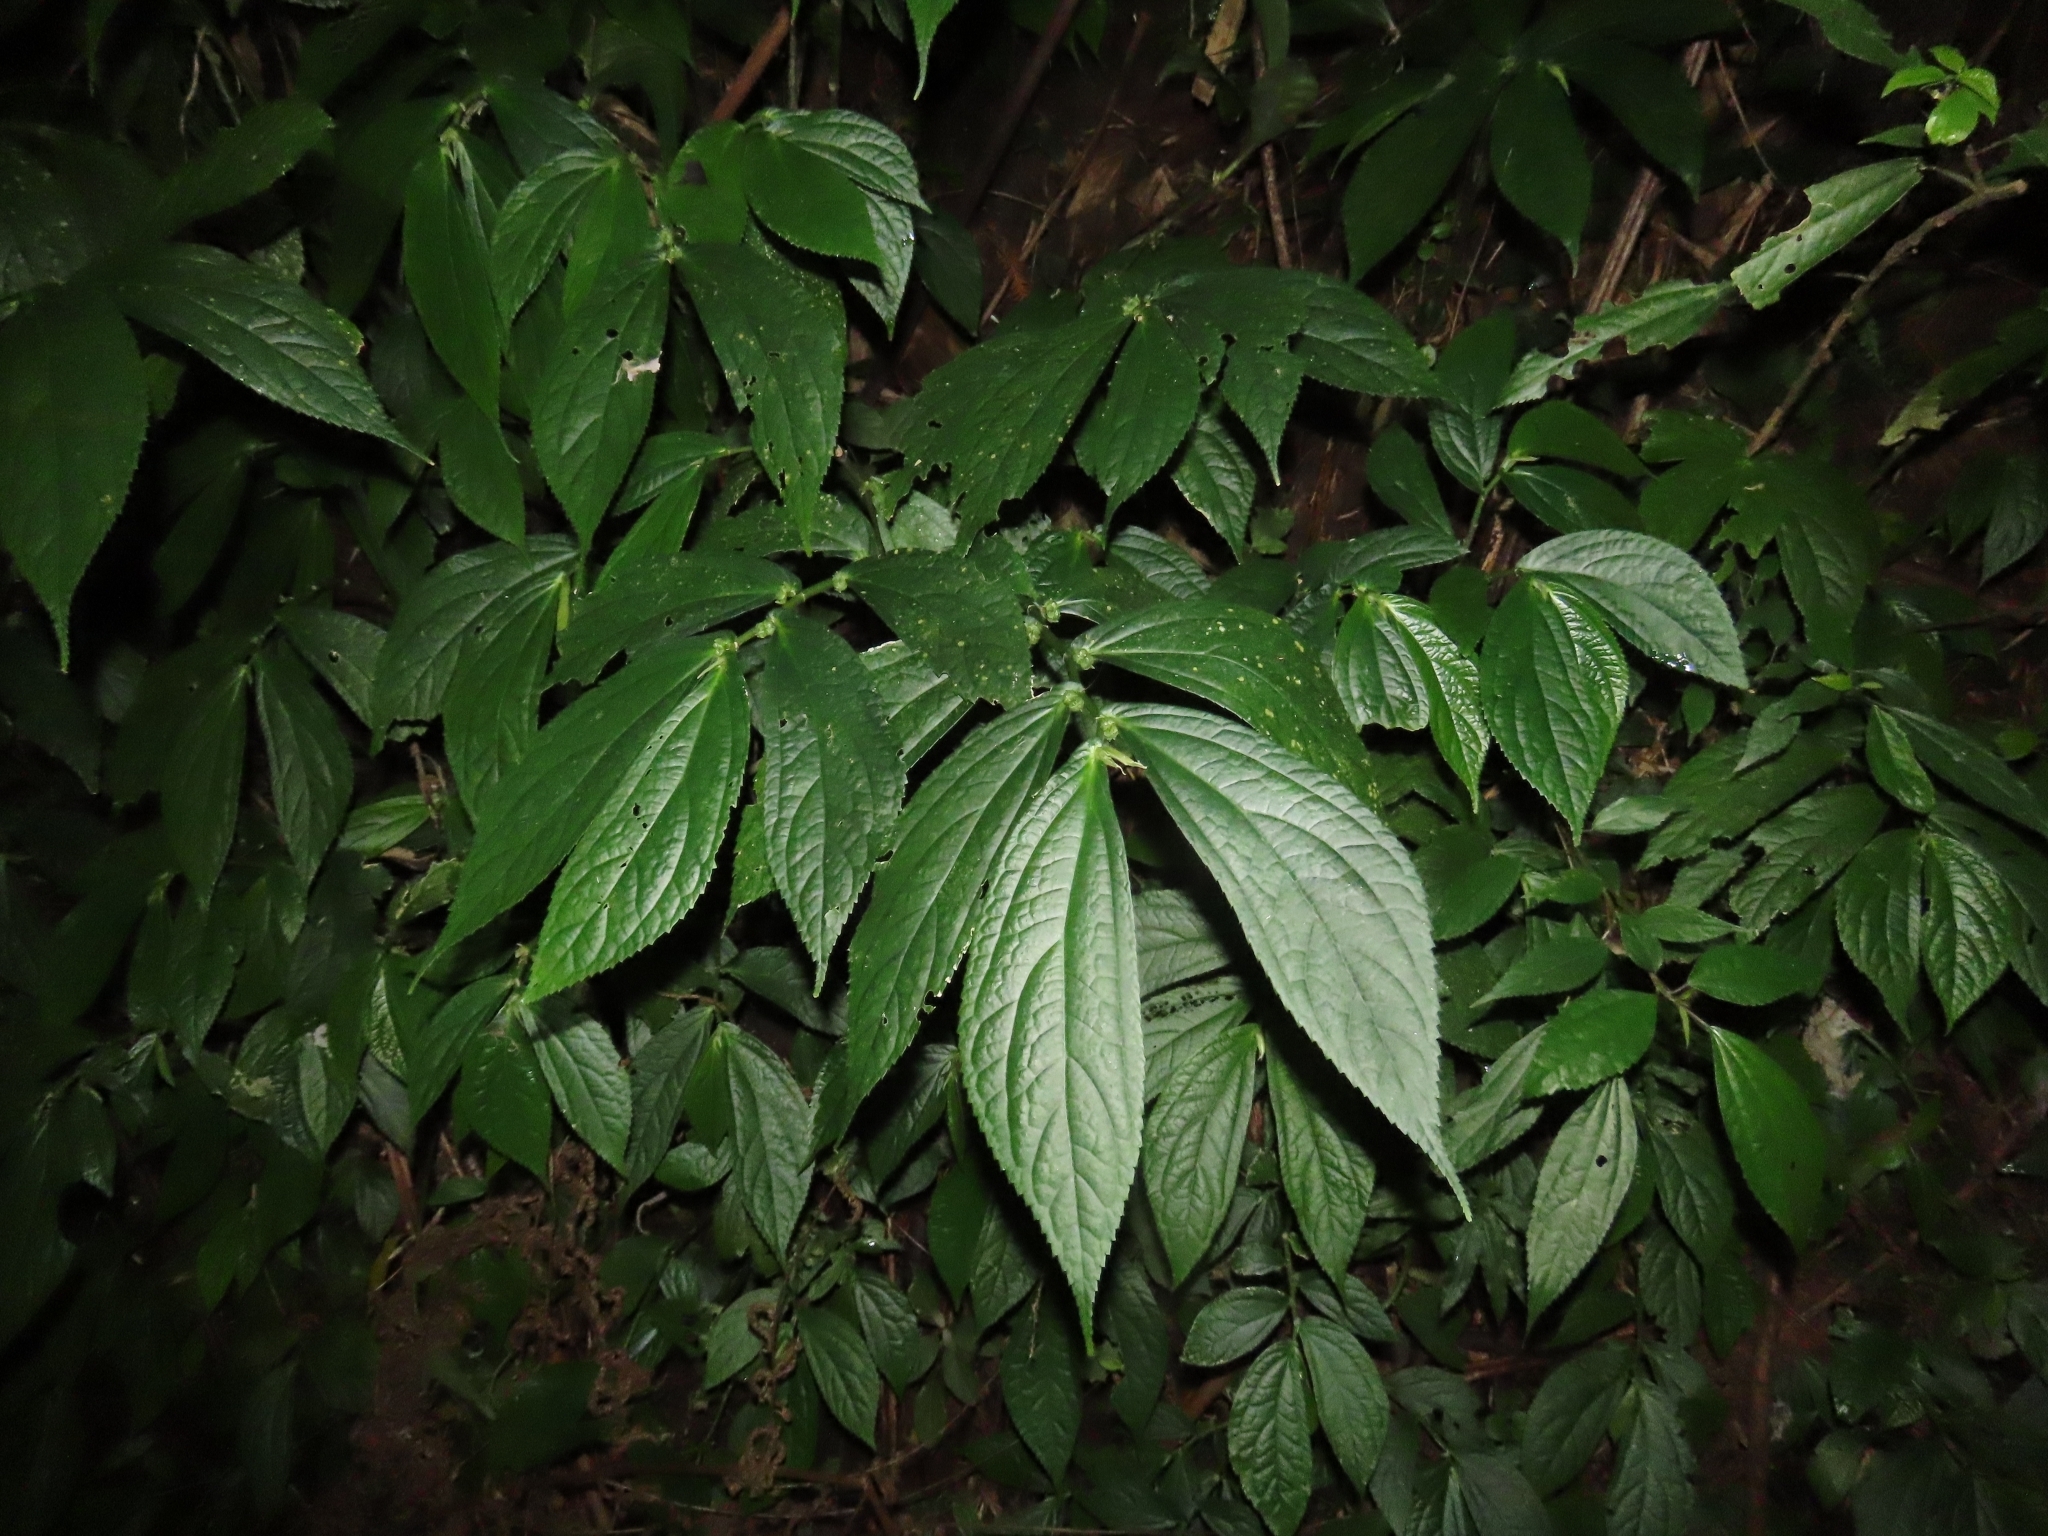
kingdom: Plantae
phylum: Tracheophyta
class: Magnoliopsida
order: Rosales
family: Urticaceae
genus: Elatostema
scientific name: Elatostema platyphyllum
